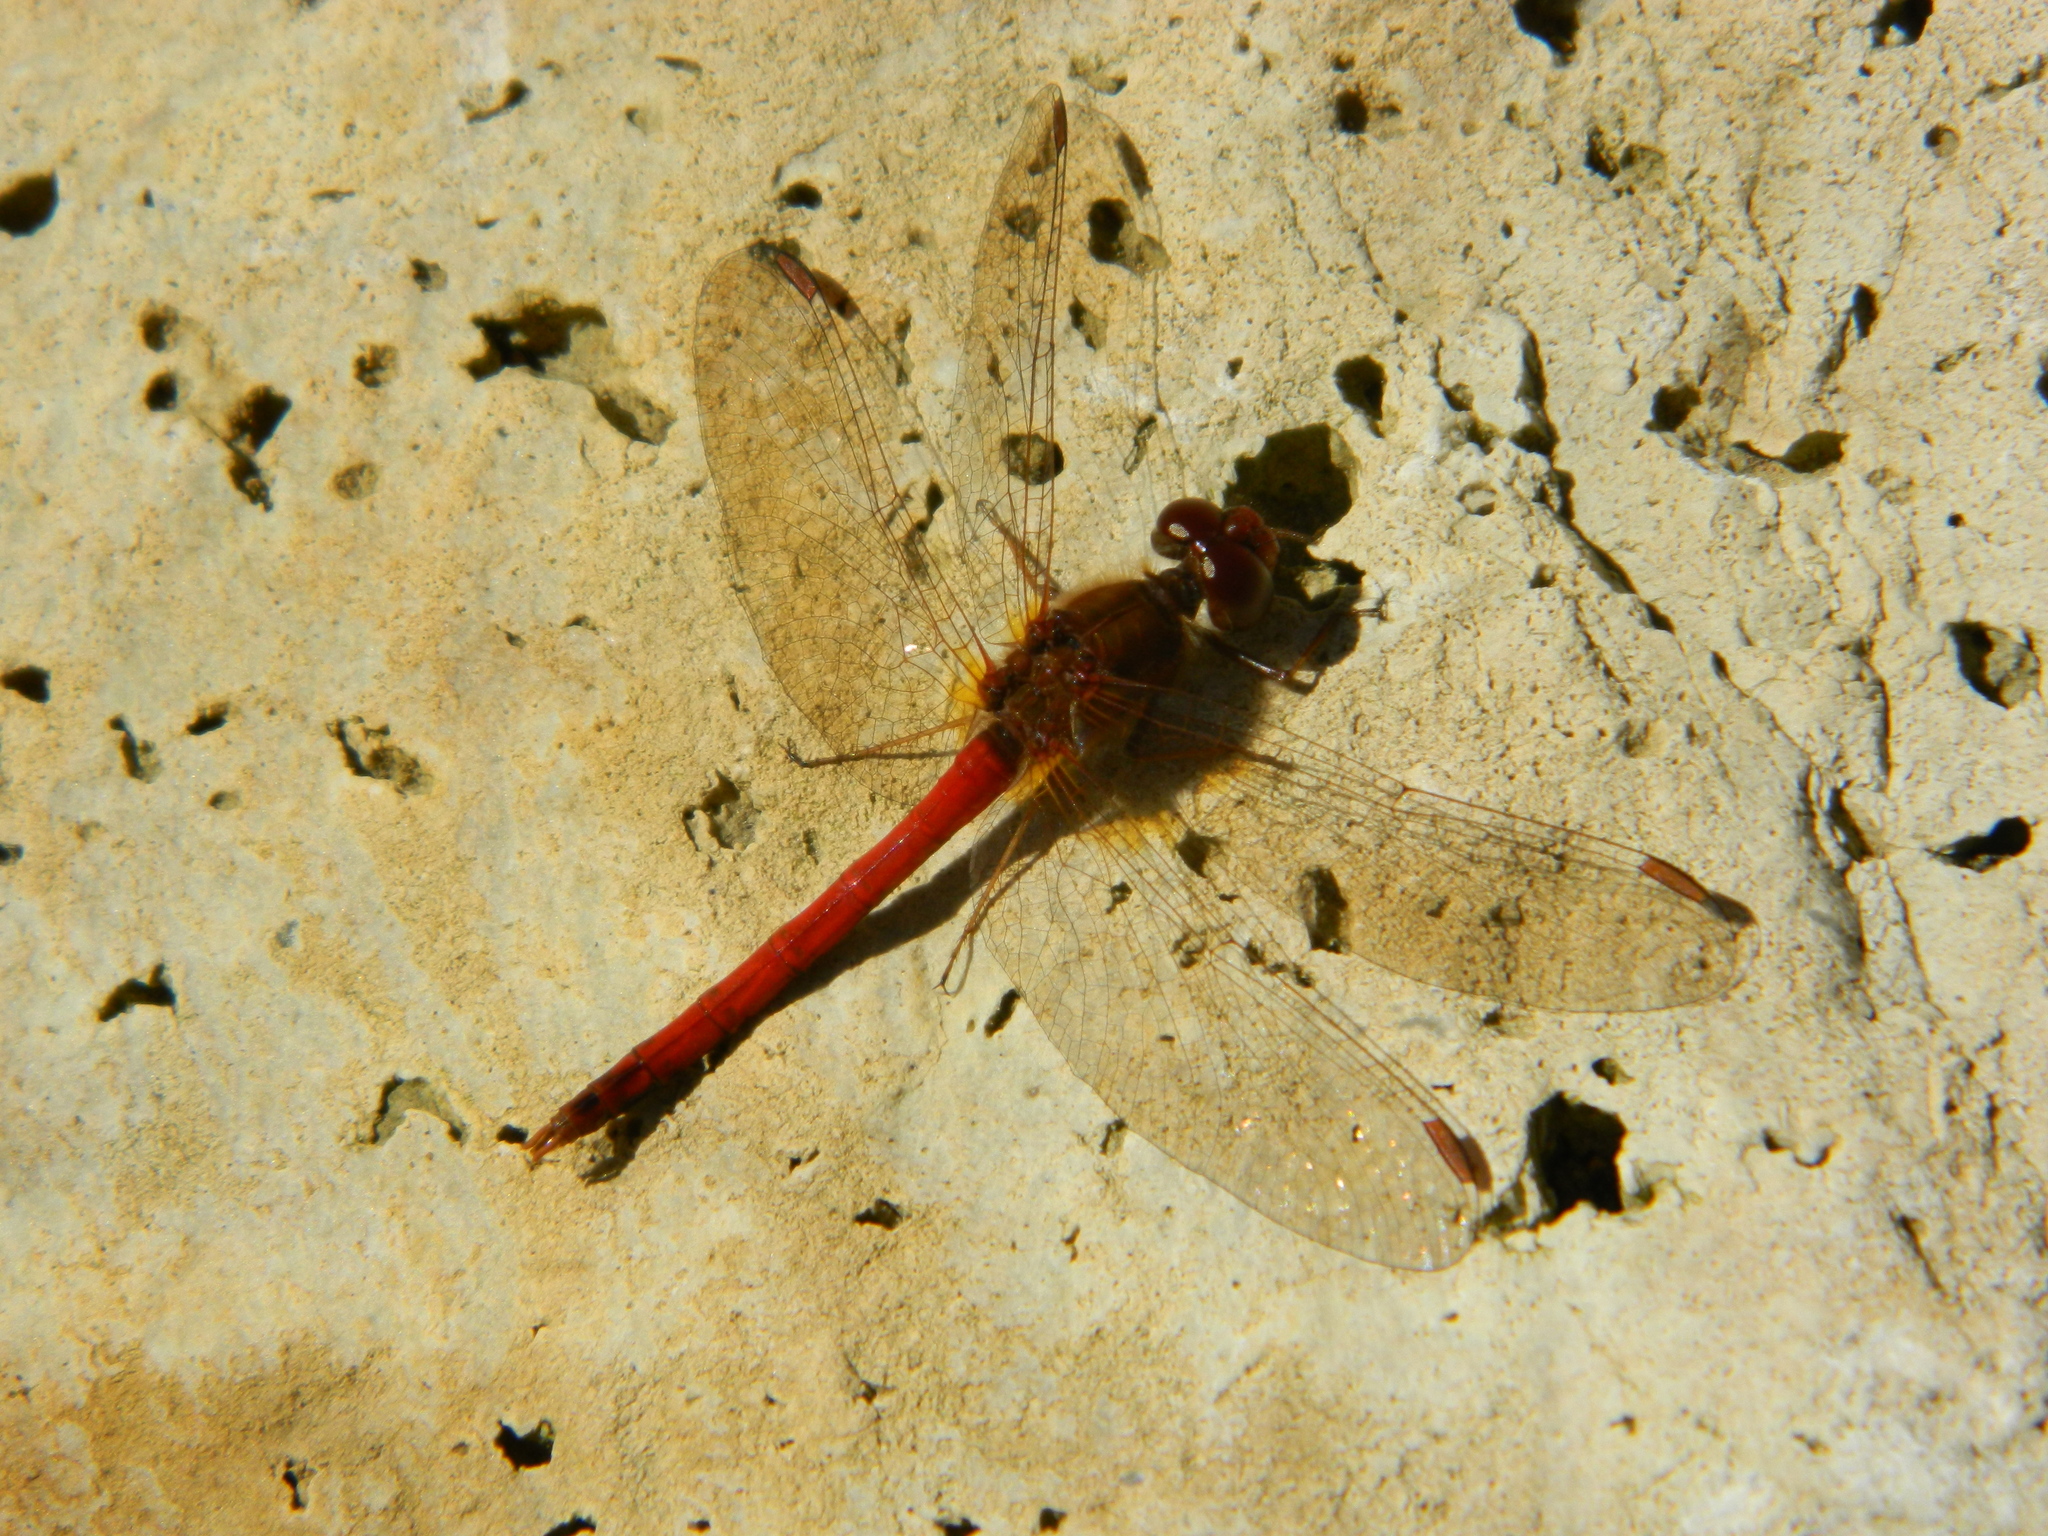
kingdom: Animalia
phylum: Arthropoda
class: Insecta
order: Odonata
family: Libellulidae
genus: Sympetrum
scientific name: Sympetrum vicinum
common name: Autumn meadowhawk
